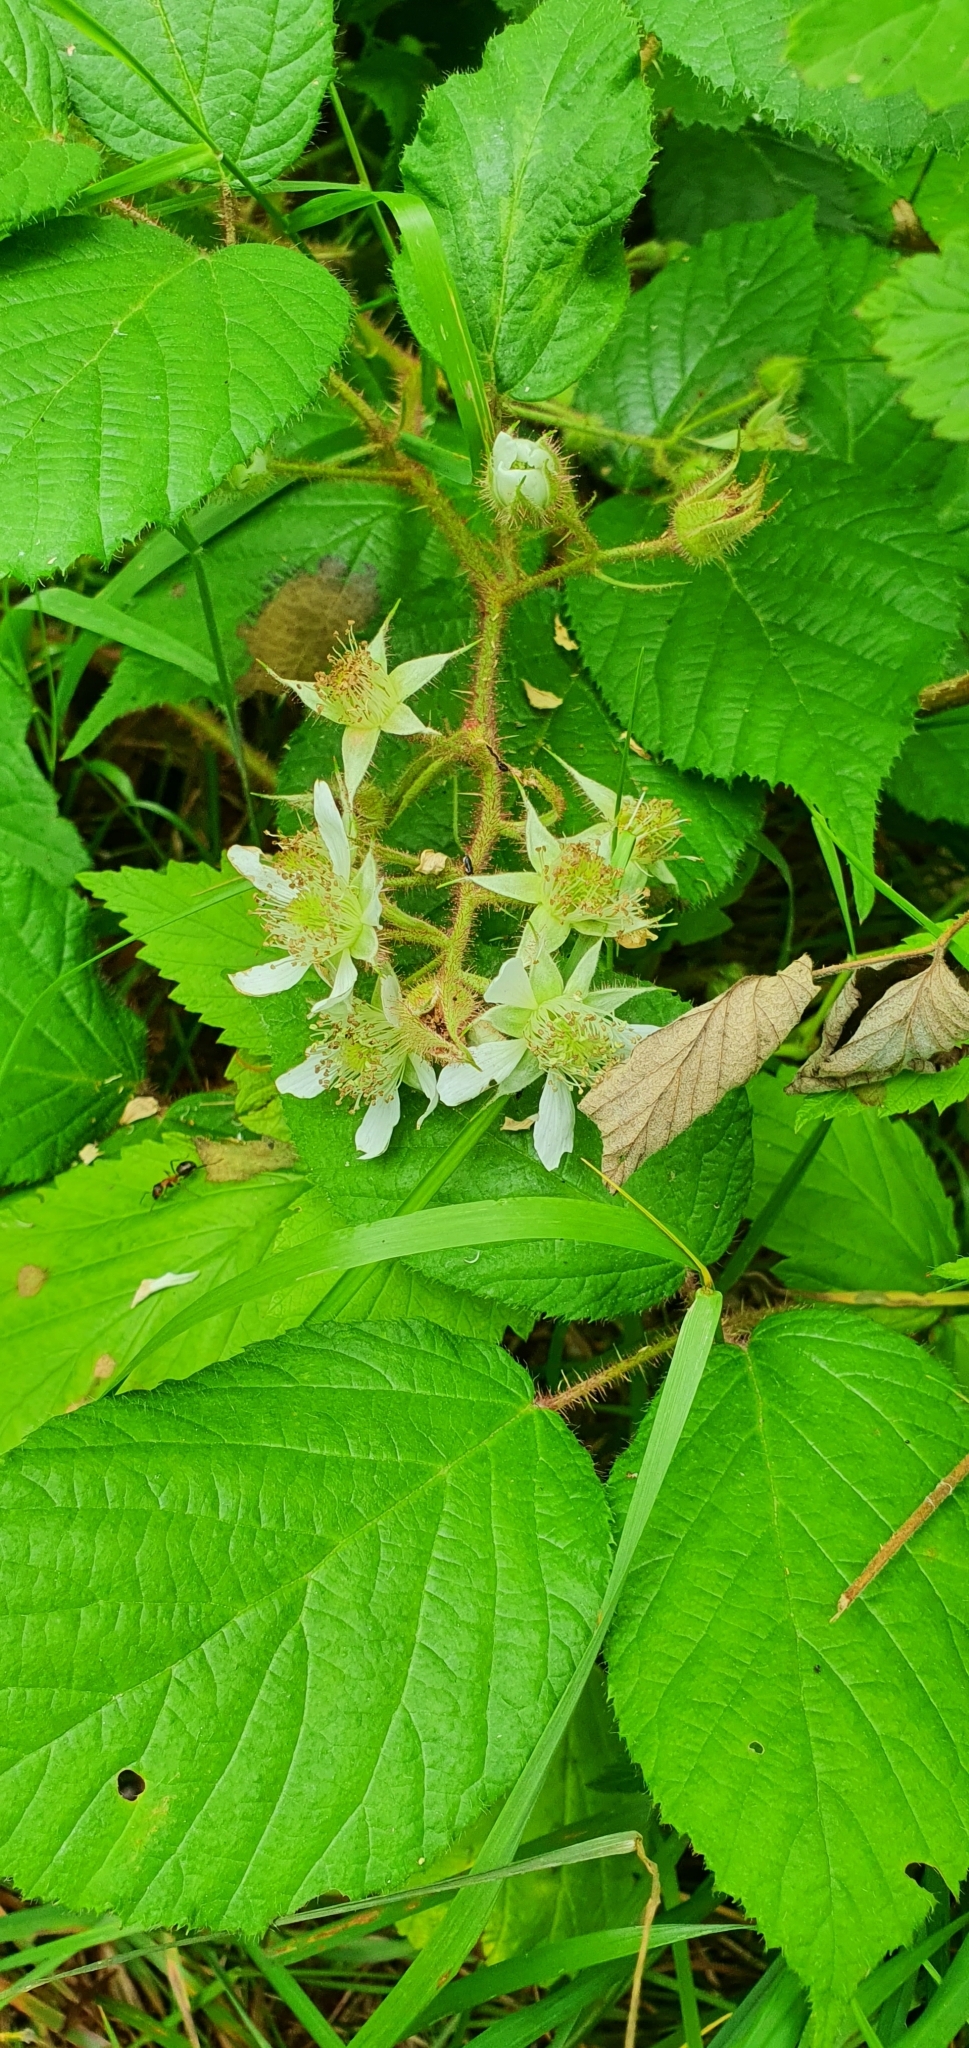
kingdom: Plantae
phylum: Tracheophyta
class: Magnoliopsida
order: Rosales
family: Rosaceae
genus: Rubus
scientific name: Rubus hirtus
